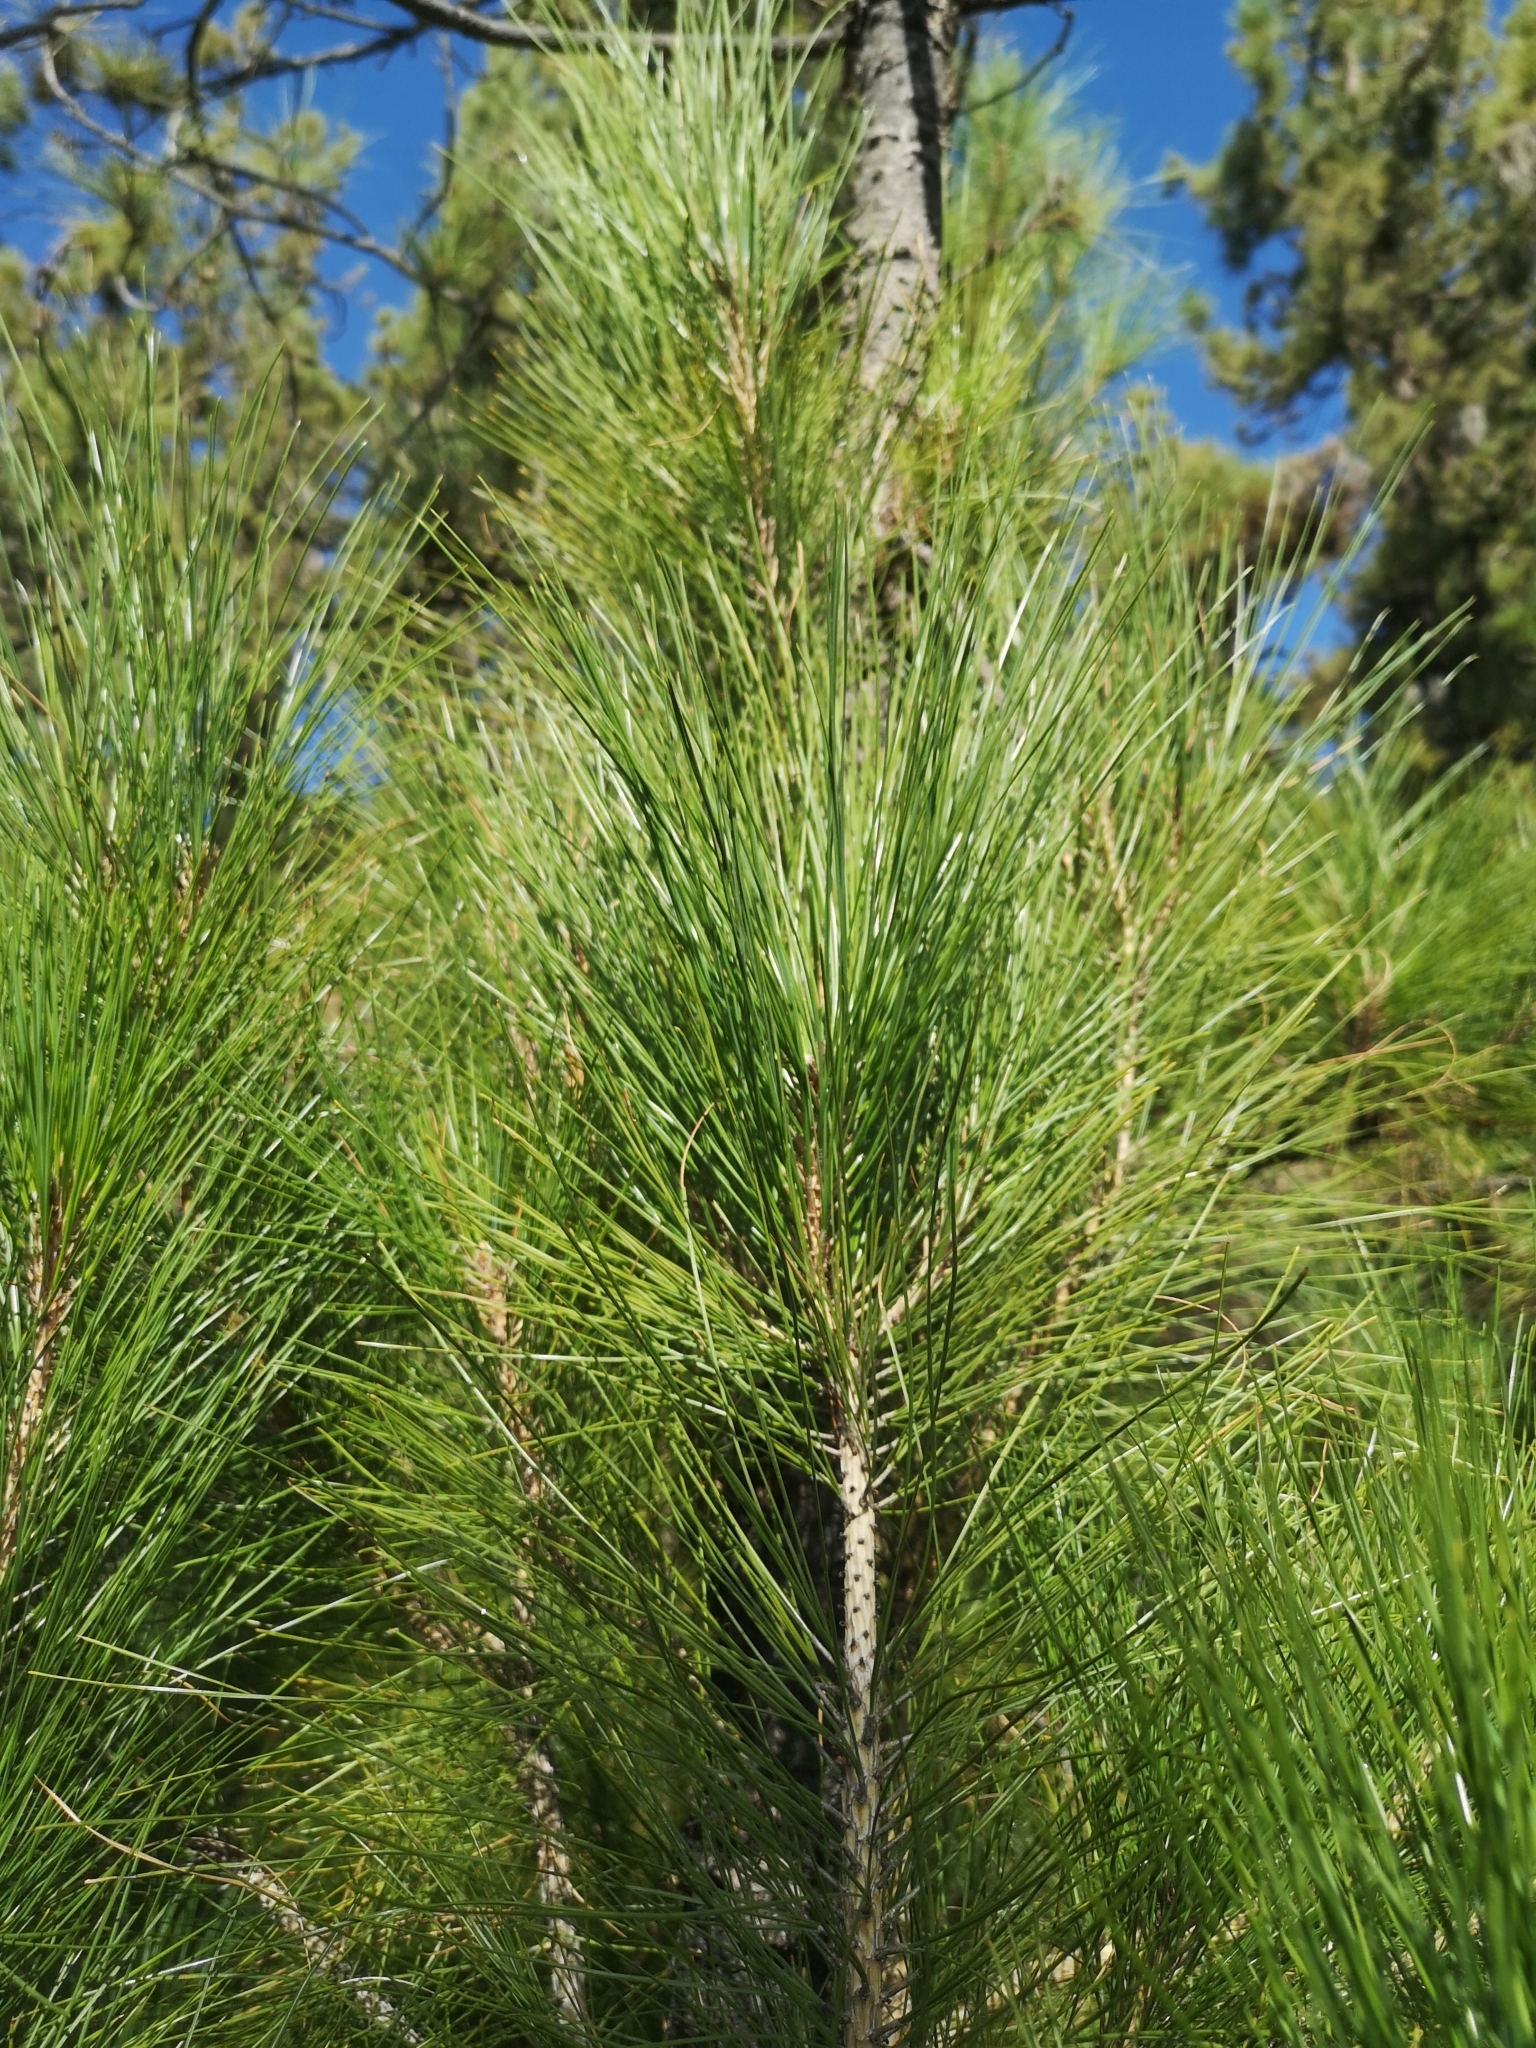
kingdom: Plantae
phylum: Tracheophyta
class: Pinopsida
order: Pinales
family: Pinaceae
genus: Pinus
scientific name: Pinus canariensis
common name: Canary islands pine
